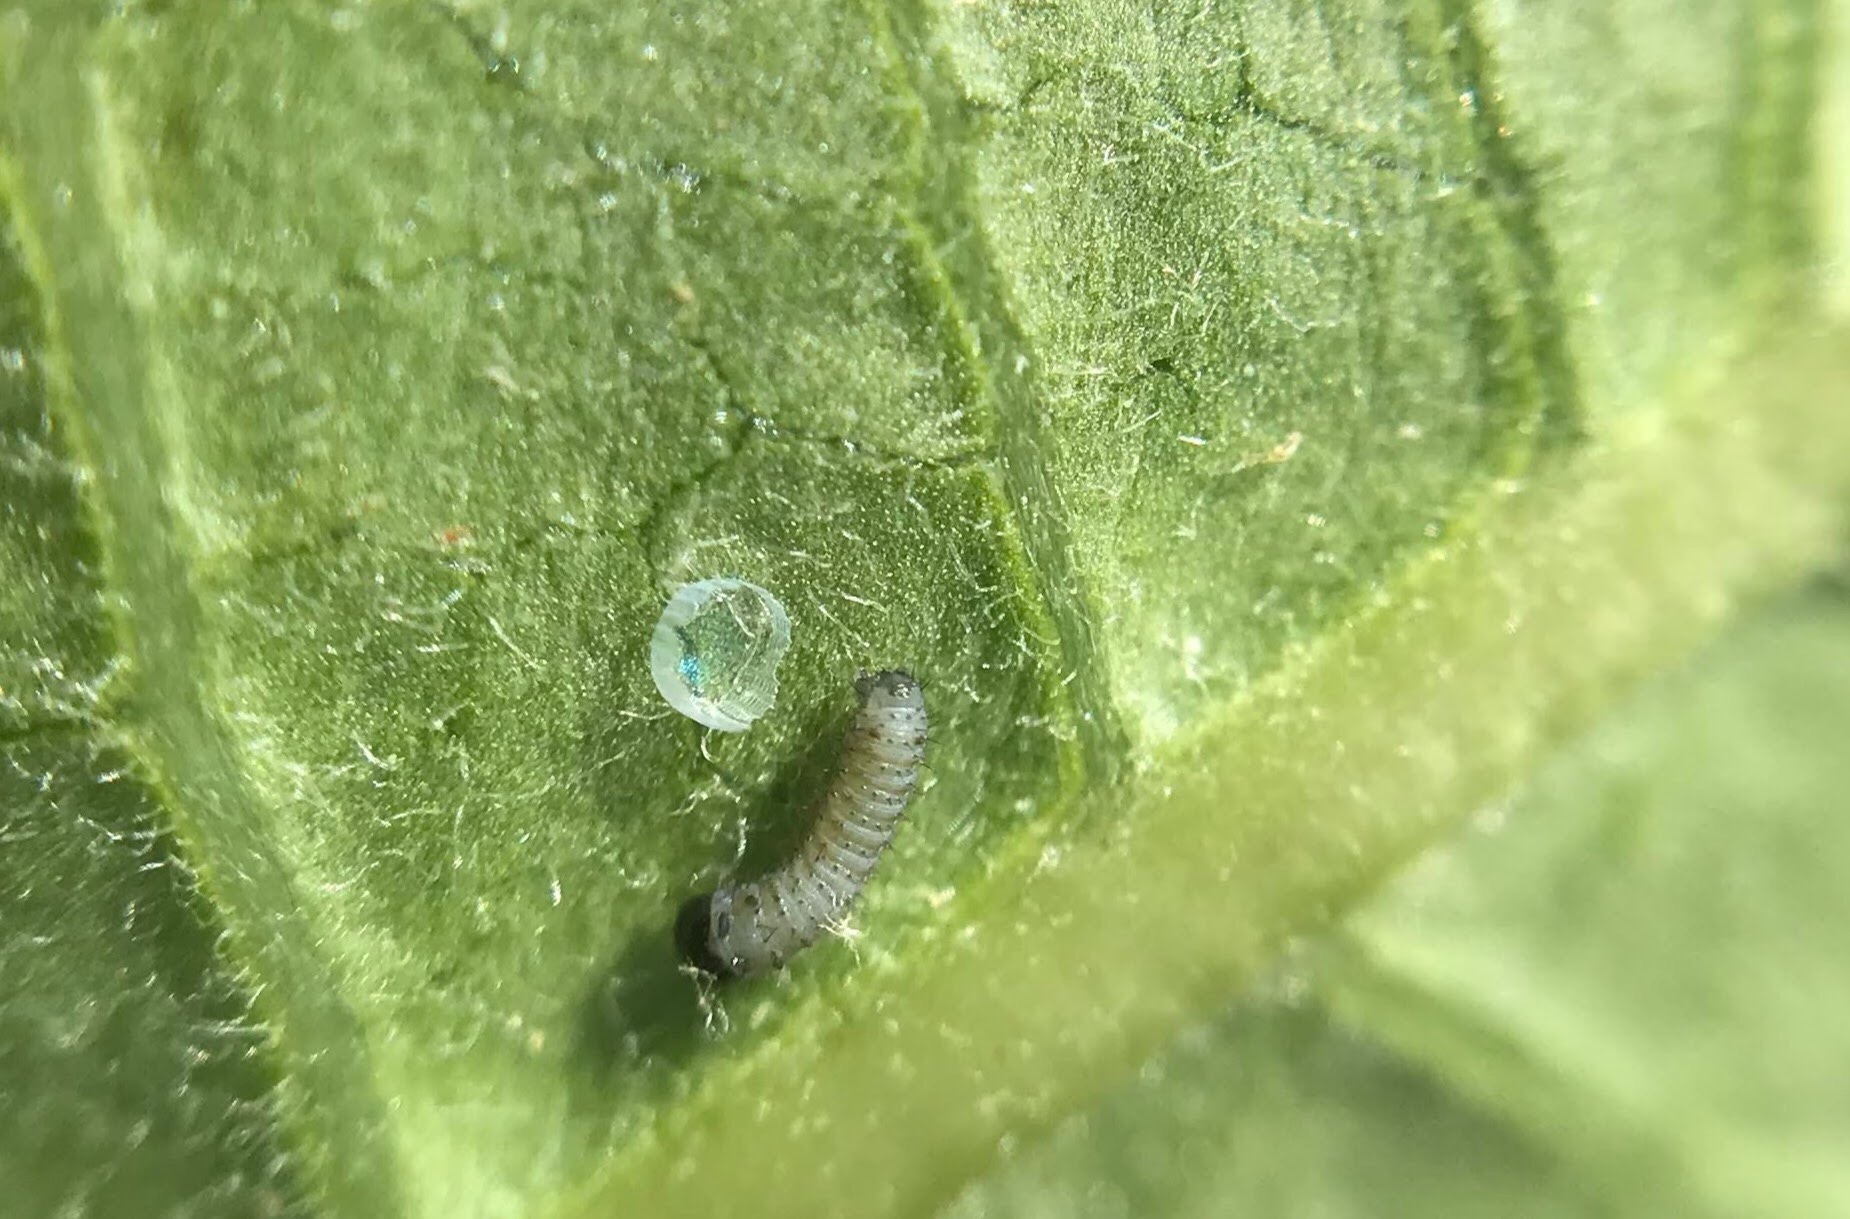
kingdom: Animalia
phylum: Arthropoda
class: Insecta
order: Lepidoptera
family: Nymphalidae
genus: Danaus
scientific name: Danaus plexippus
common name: Monarch
